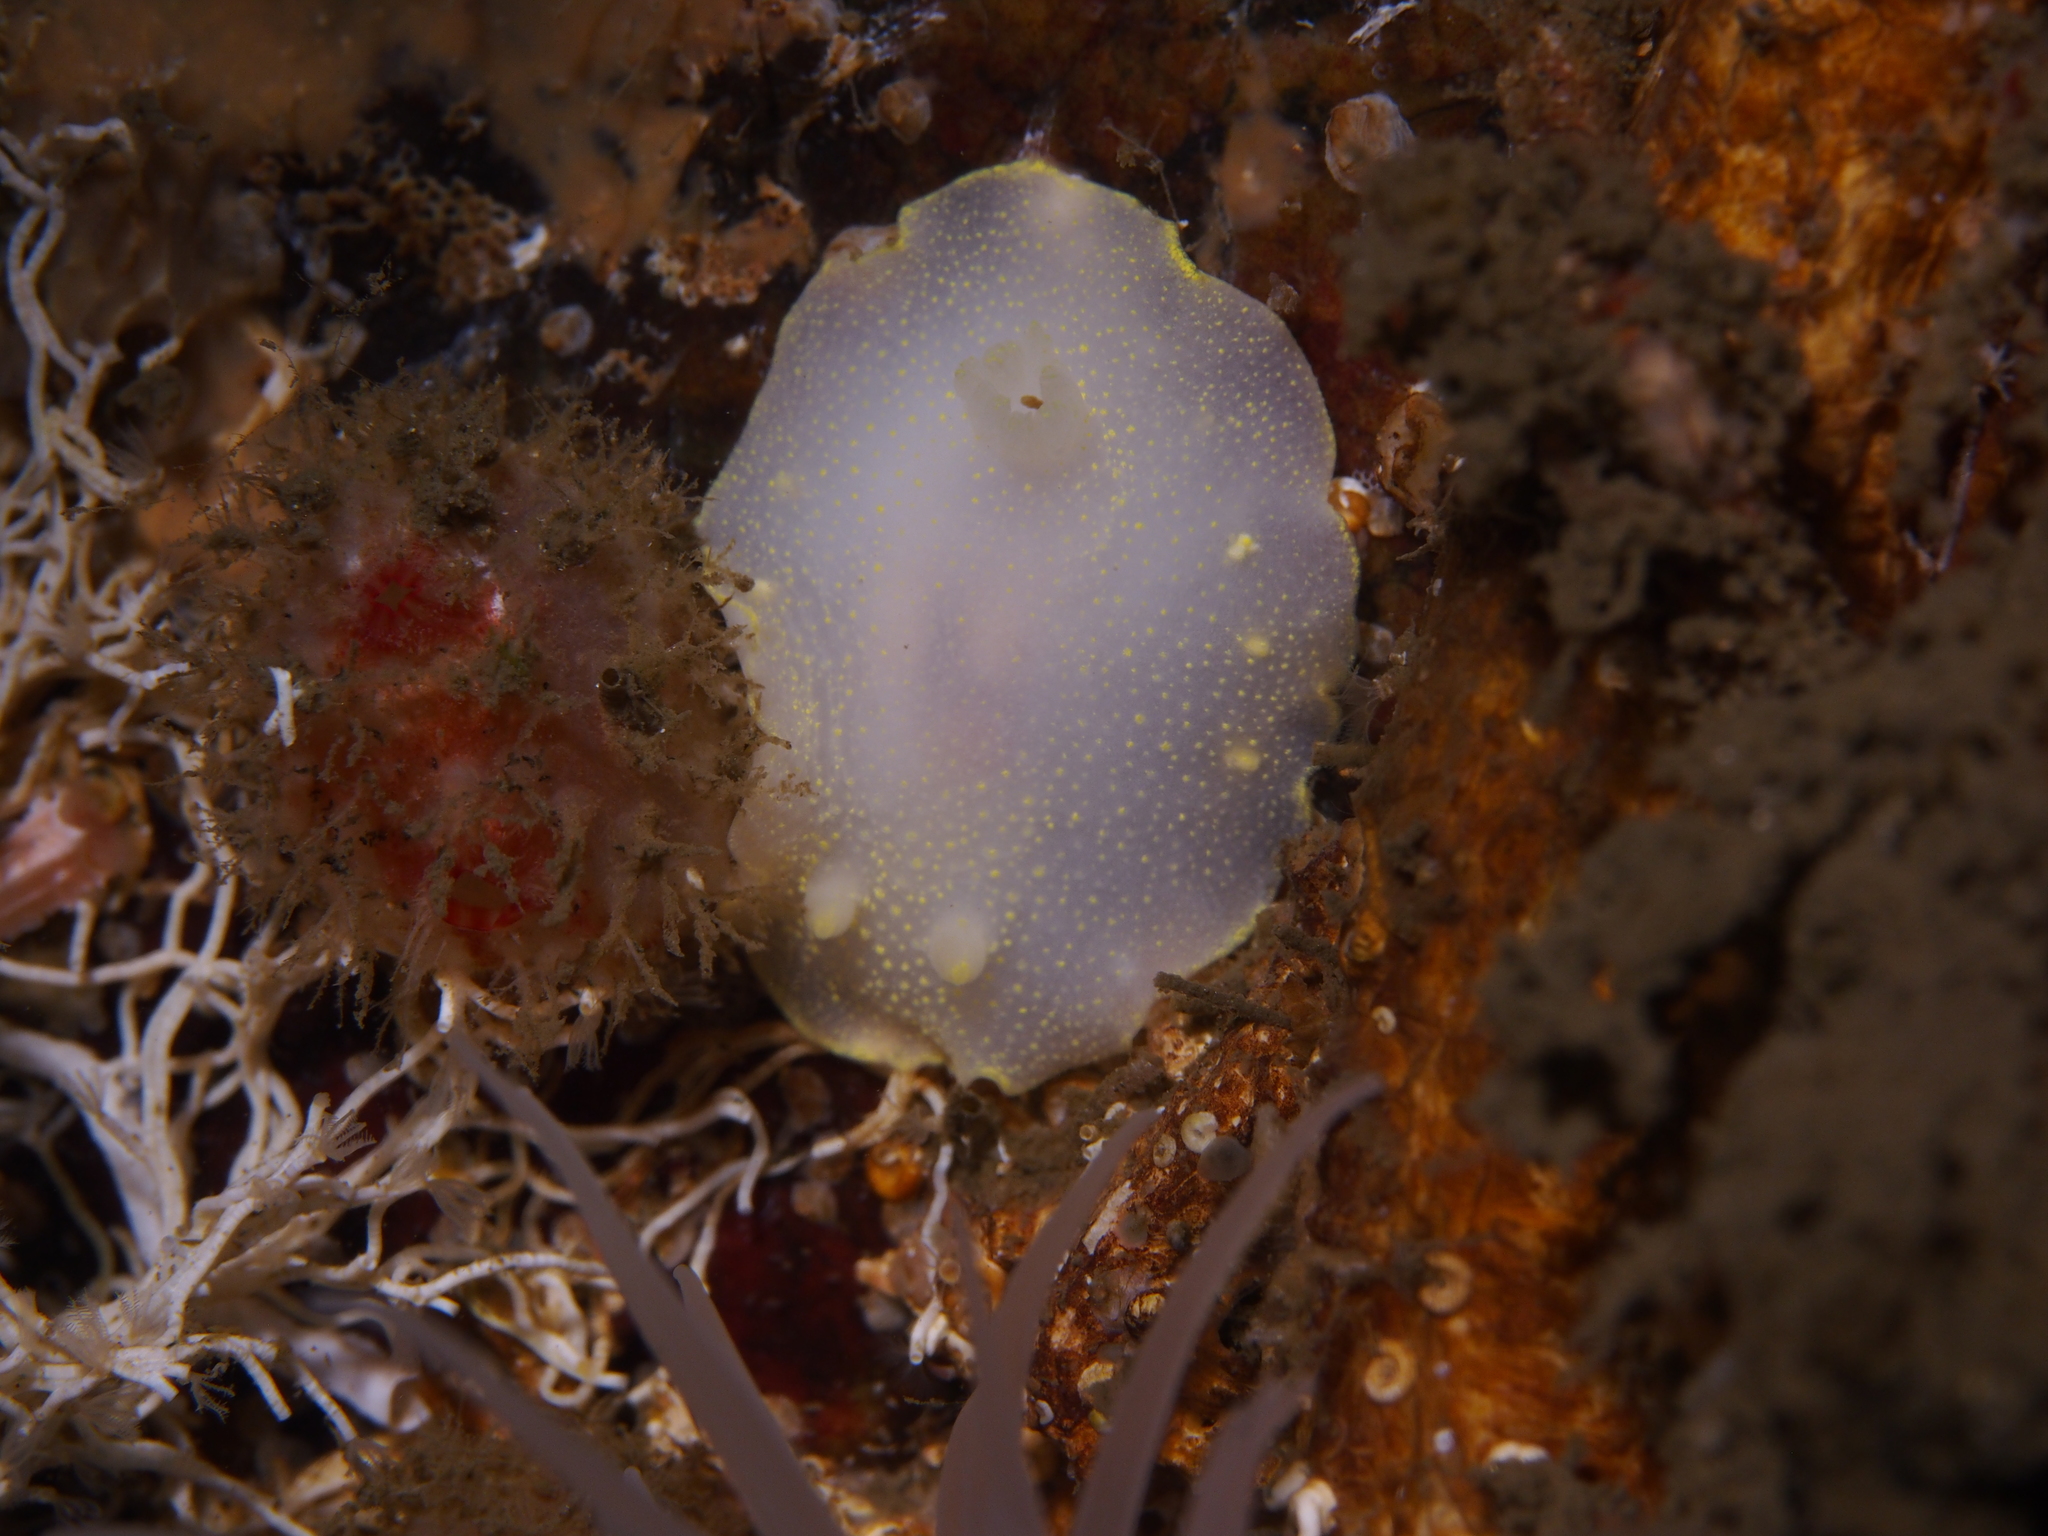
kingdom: Animalia
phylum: Mollusca
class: Gastropoda
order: Nudibranchia
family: Cadlinidae
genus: Cadlina
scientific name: Cadlina laevis
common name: White atlantic cadlina
